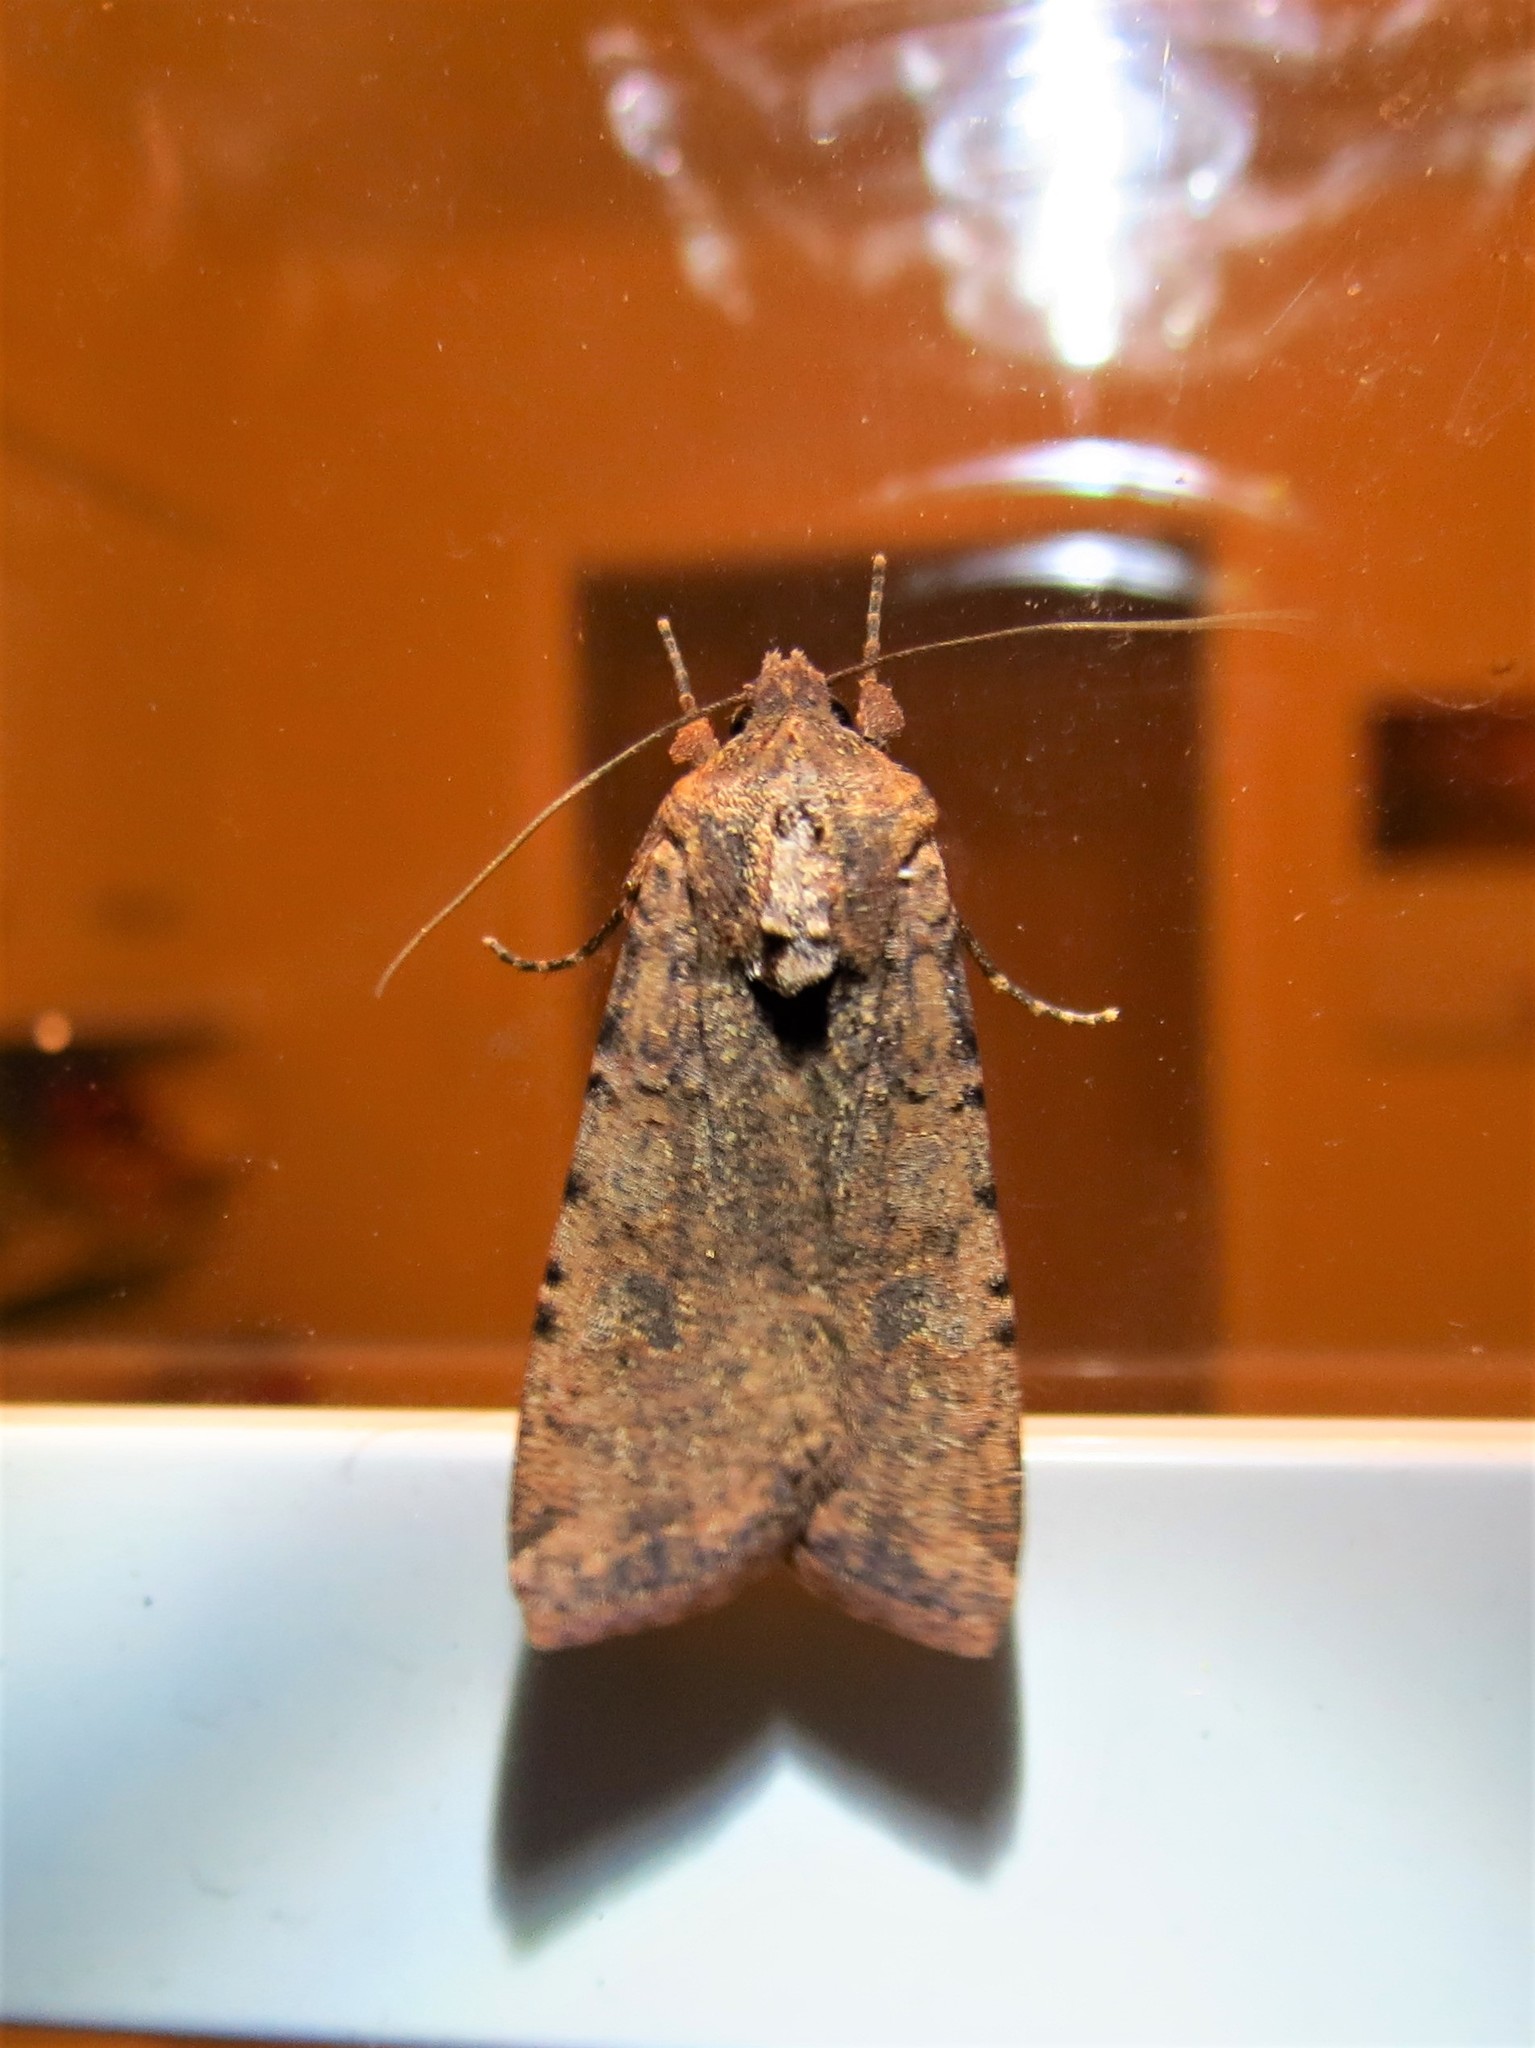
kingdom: Animalia
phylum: Arthropoda
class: Insecta
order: Lepidoptera
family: Noctuidae
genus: Peridroma
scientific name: Peridroma saucia
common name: Pearly underwing
